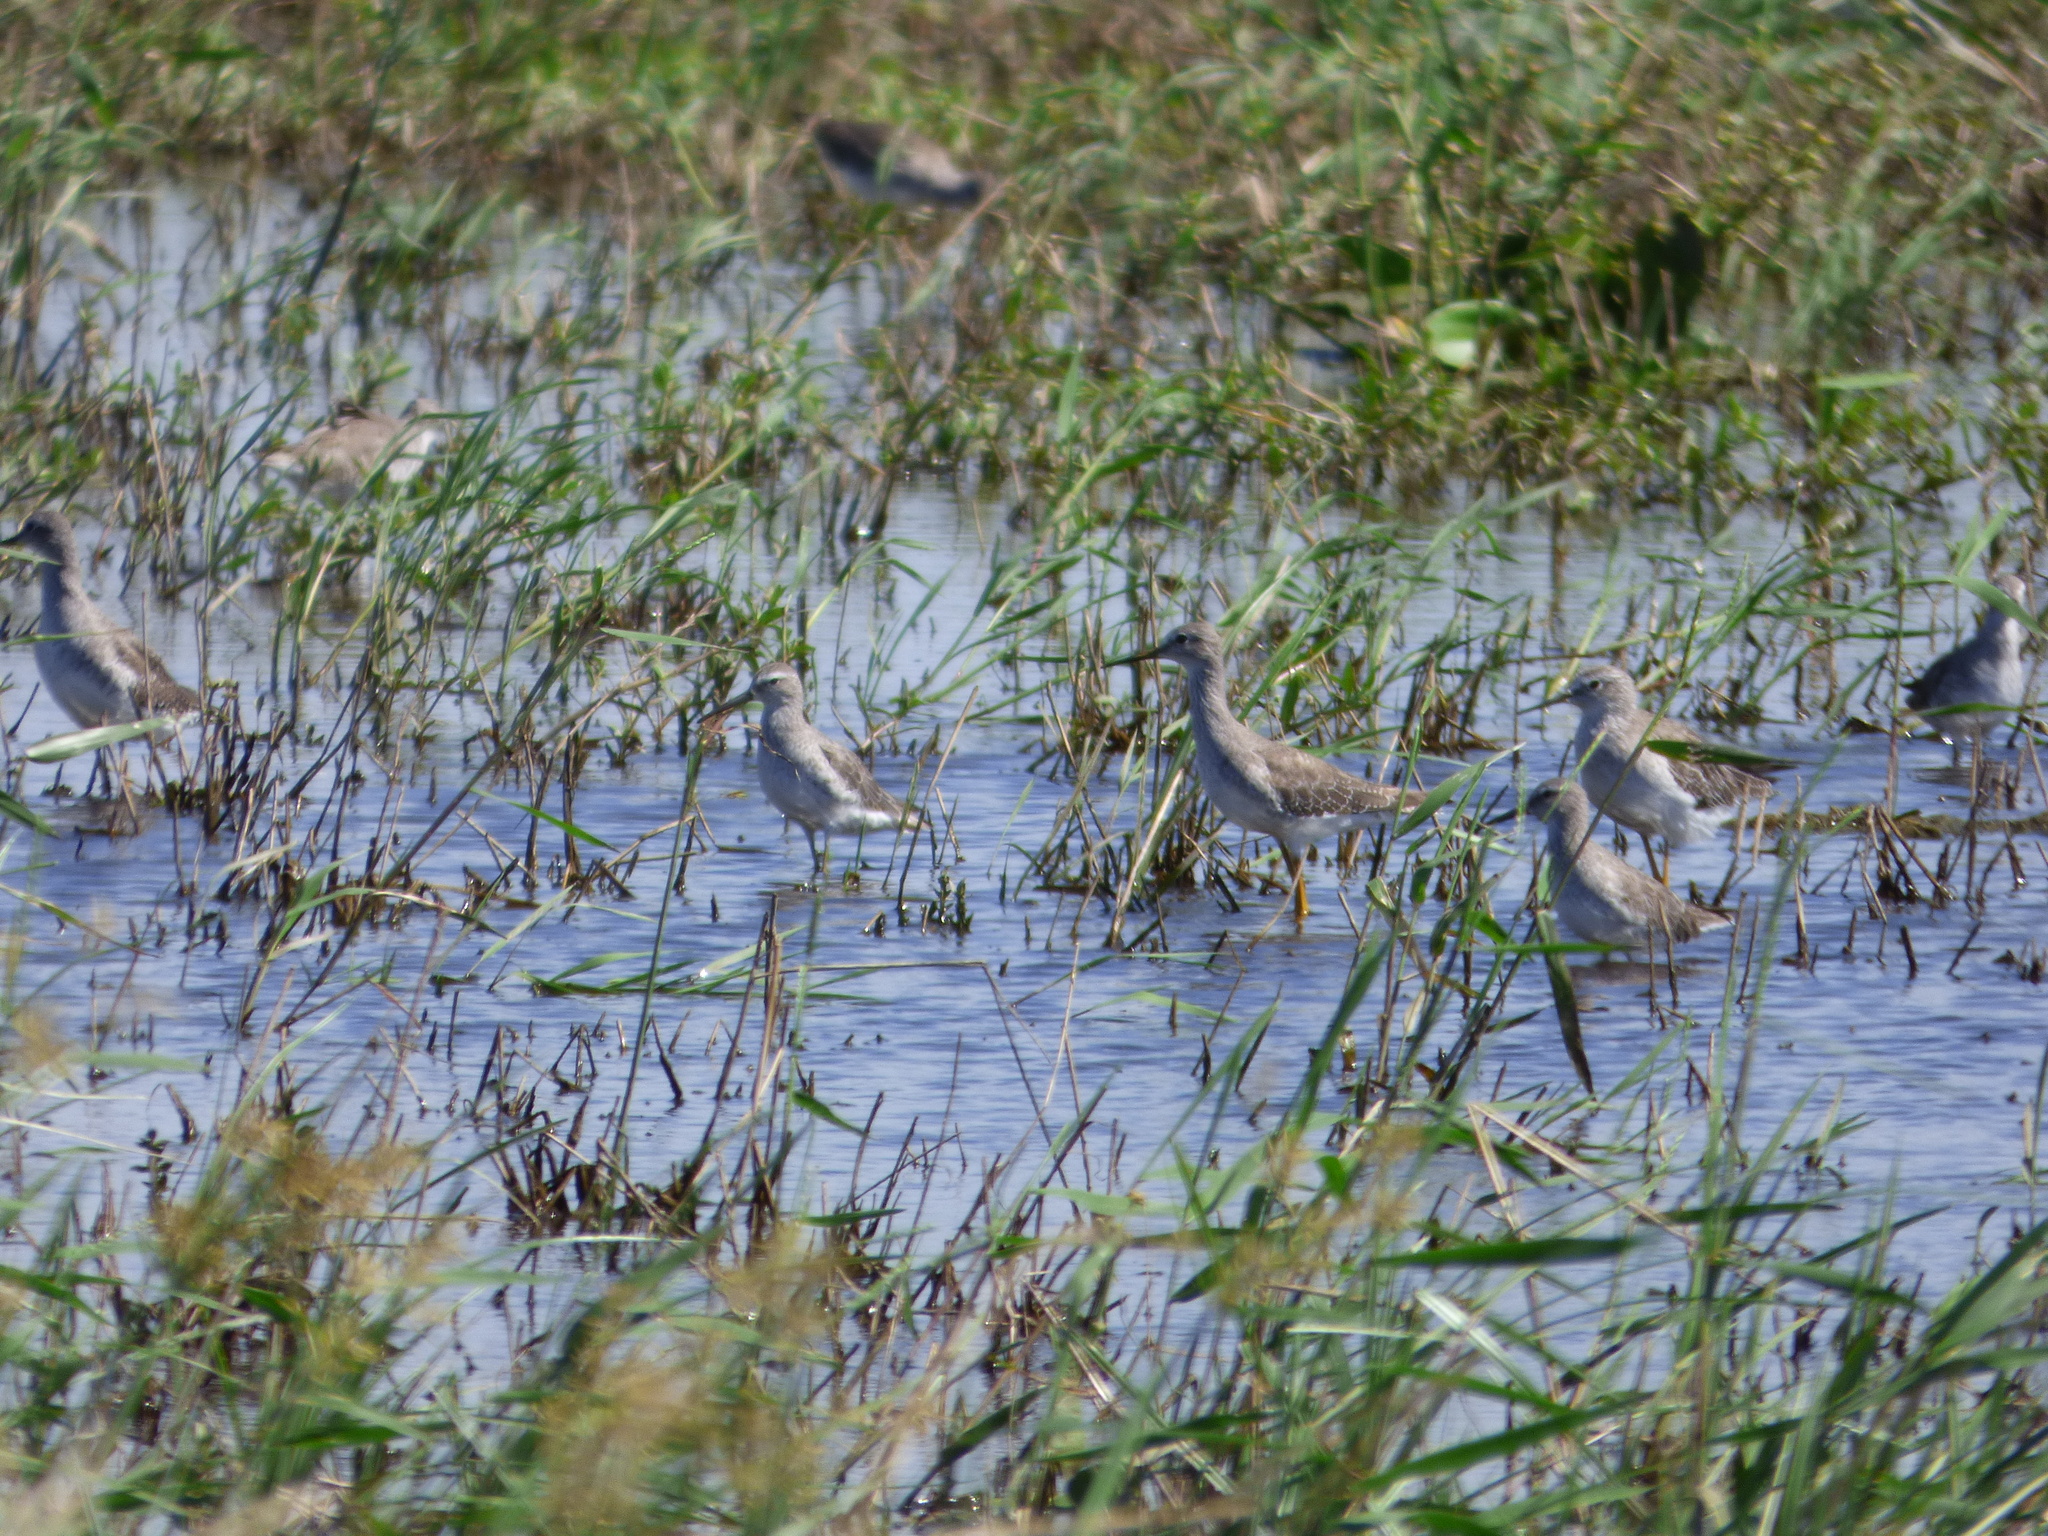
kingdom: Animalia
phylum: Chordata
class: Aves
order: Charadriiformes
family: Scolopacidae
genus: Calidris
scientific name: Calidris himantopus
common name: Stilt sandpiper
